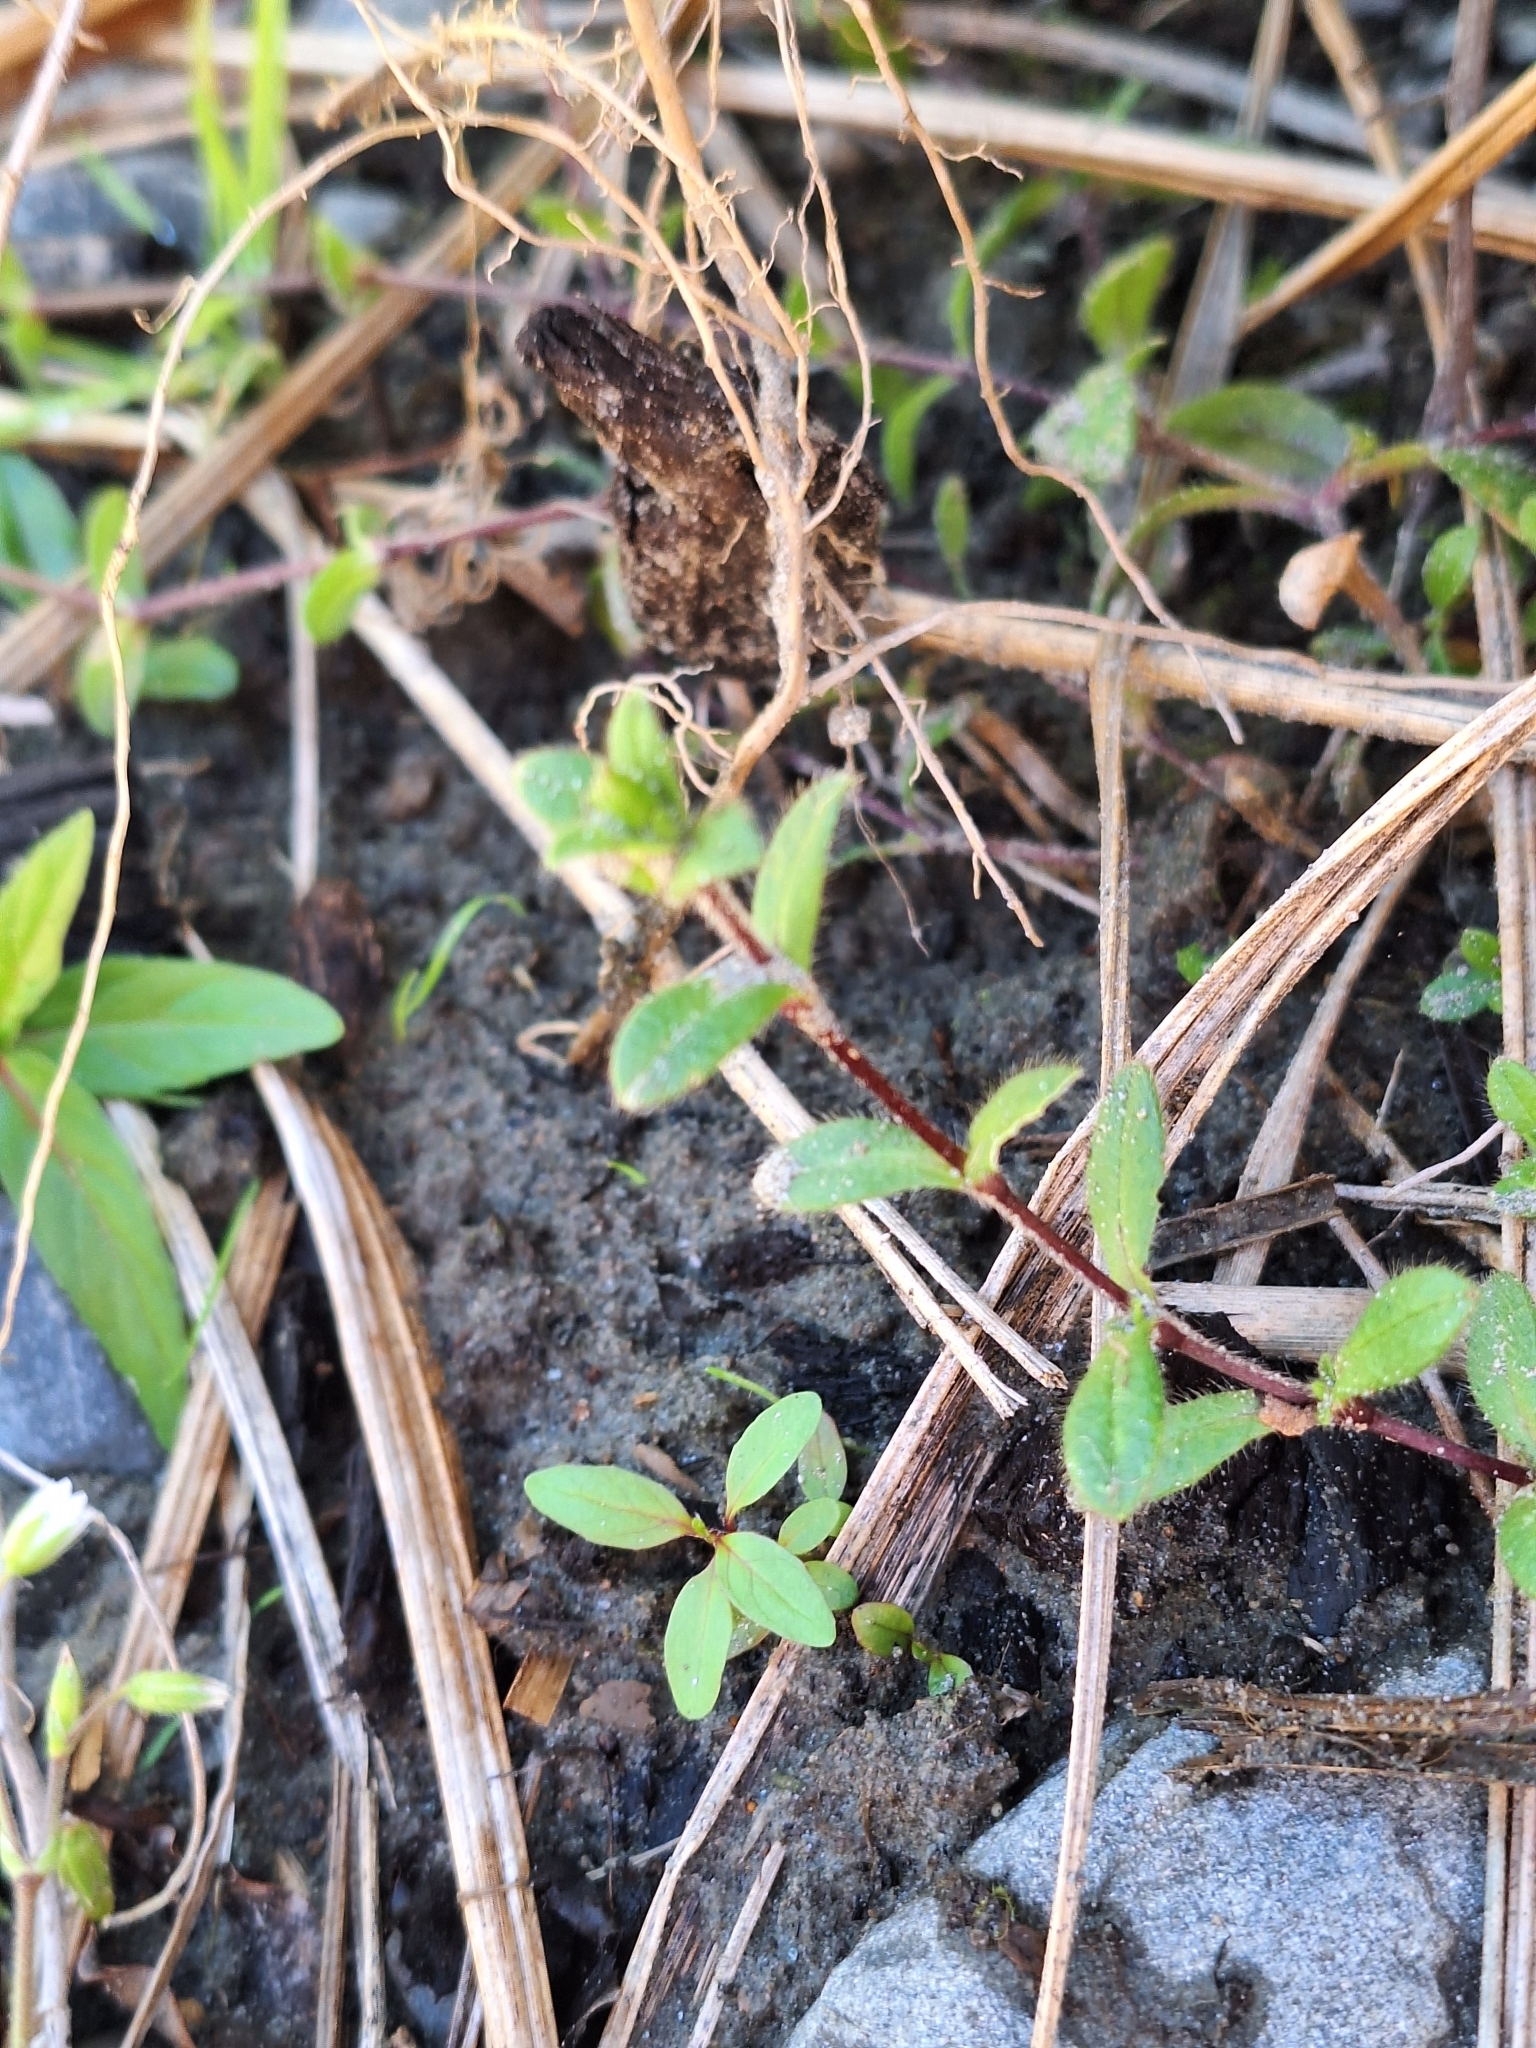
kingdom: Plantae
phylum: Tracheophyta
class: Magnoliopsida
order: Caryophyllales
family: Caryophyllaceae
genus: Cerastium
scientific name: Cerastium fontanum
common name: Common mouse-ear
